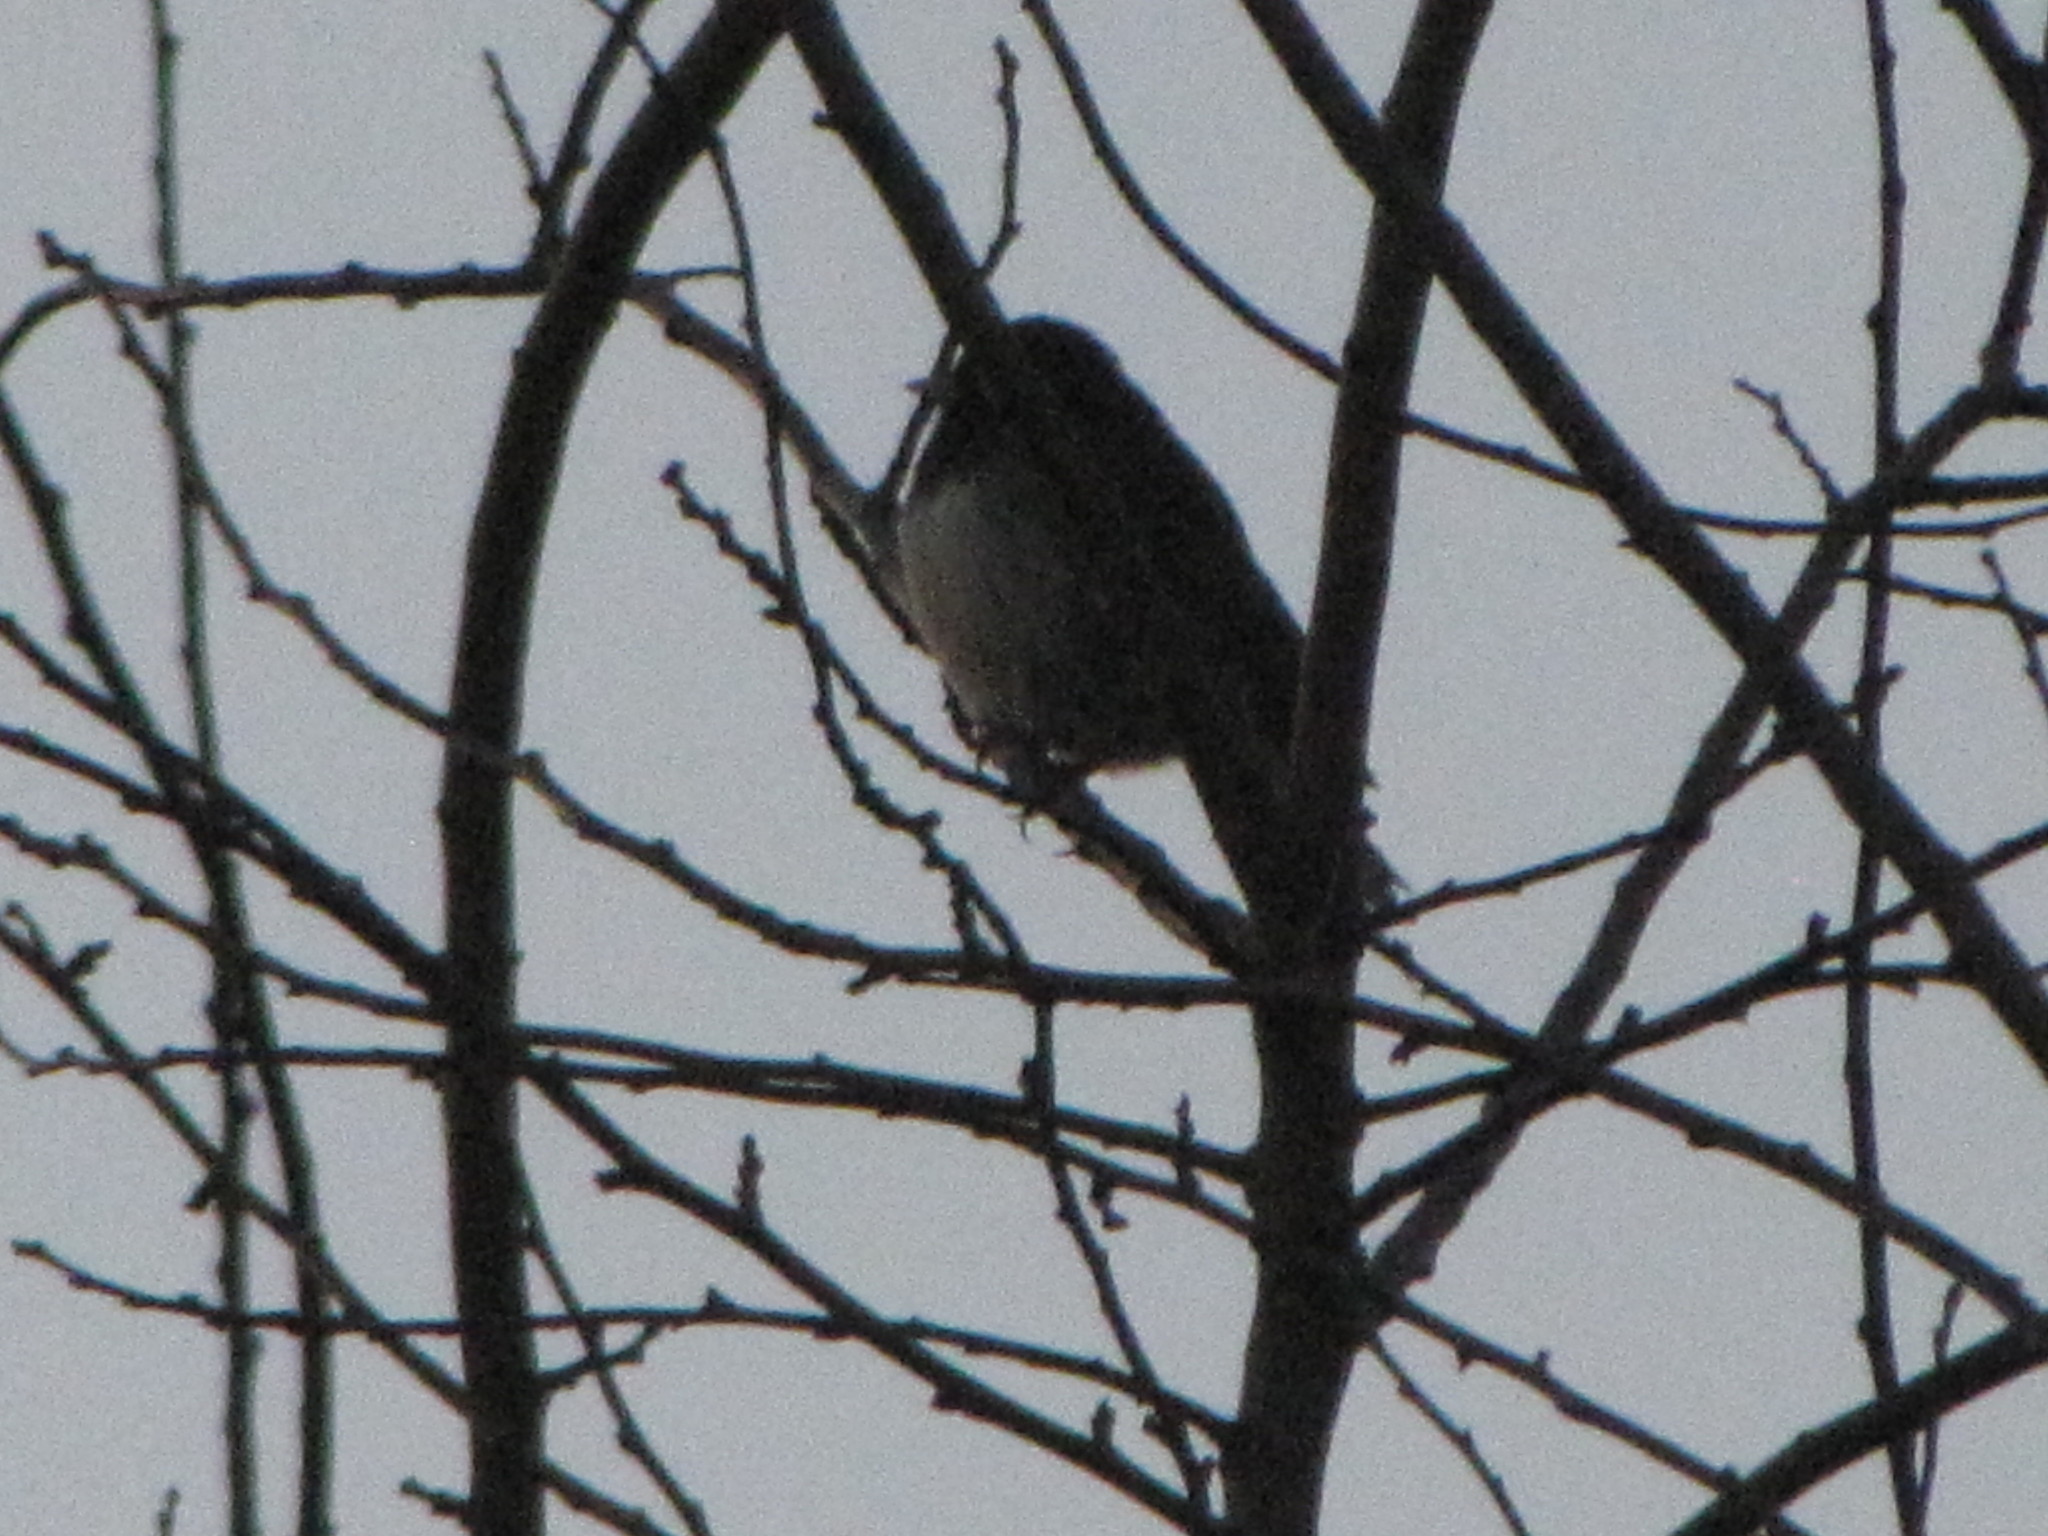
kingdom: Animalia
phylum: Chordata
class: Aves
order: Passeriformes
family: Passerellidae
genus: Junco
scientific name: Junco hyemalis
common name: Dark-eyed junco
